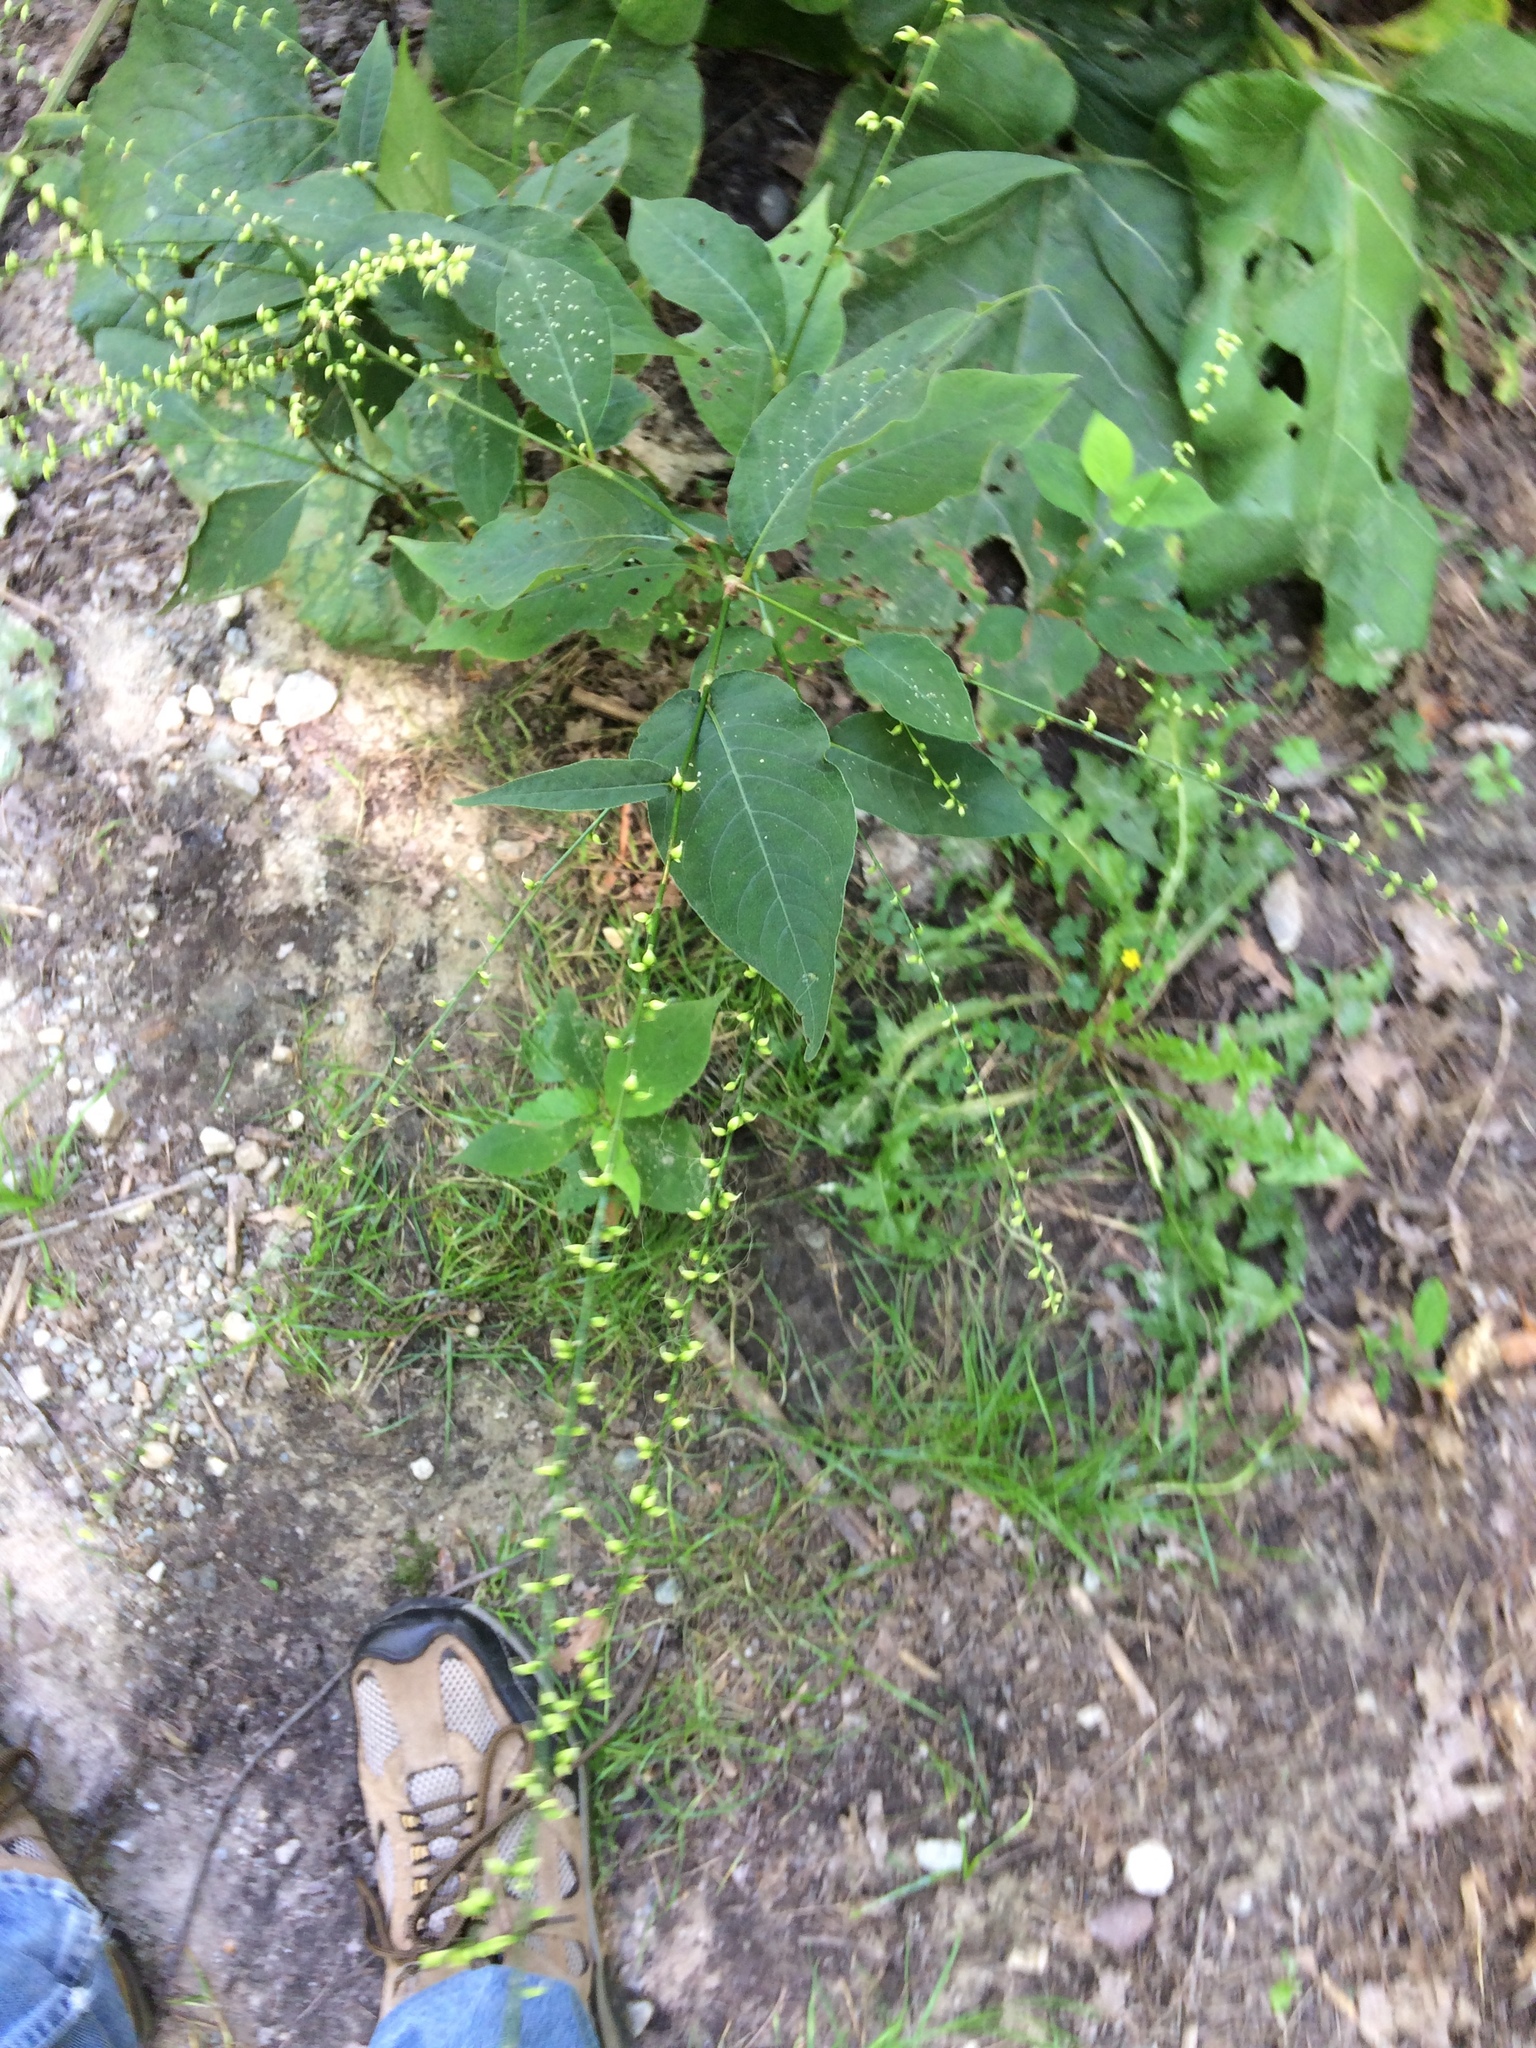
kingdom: Plantae
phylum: Tracheophyta
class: Magnoliopsida
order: Caryophyllales
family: Polygonaceae
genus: Persicaria
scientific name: Persicaria virginiana
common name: Jumpseed
